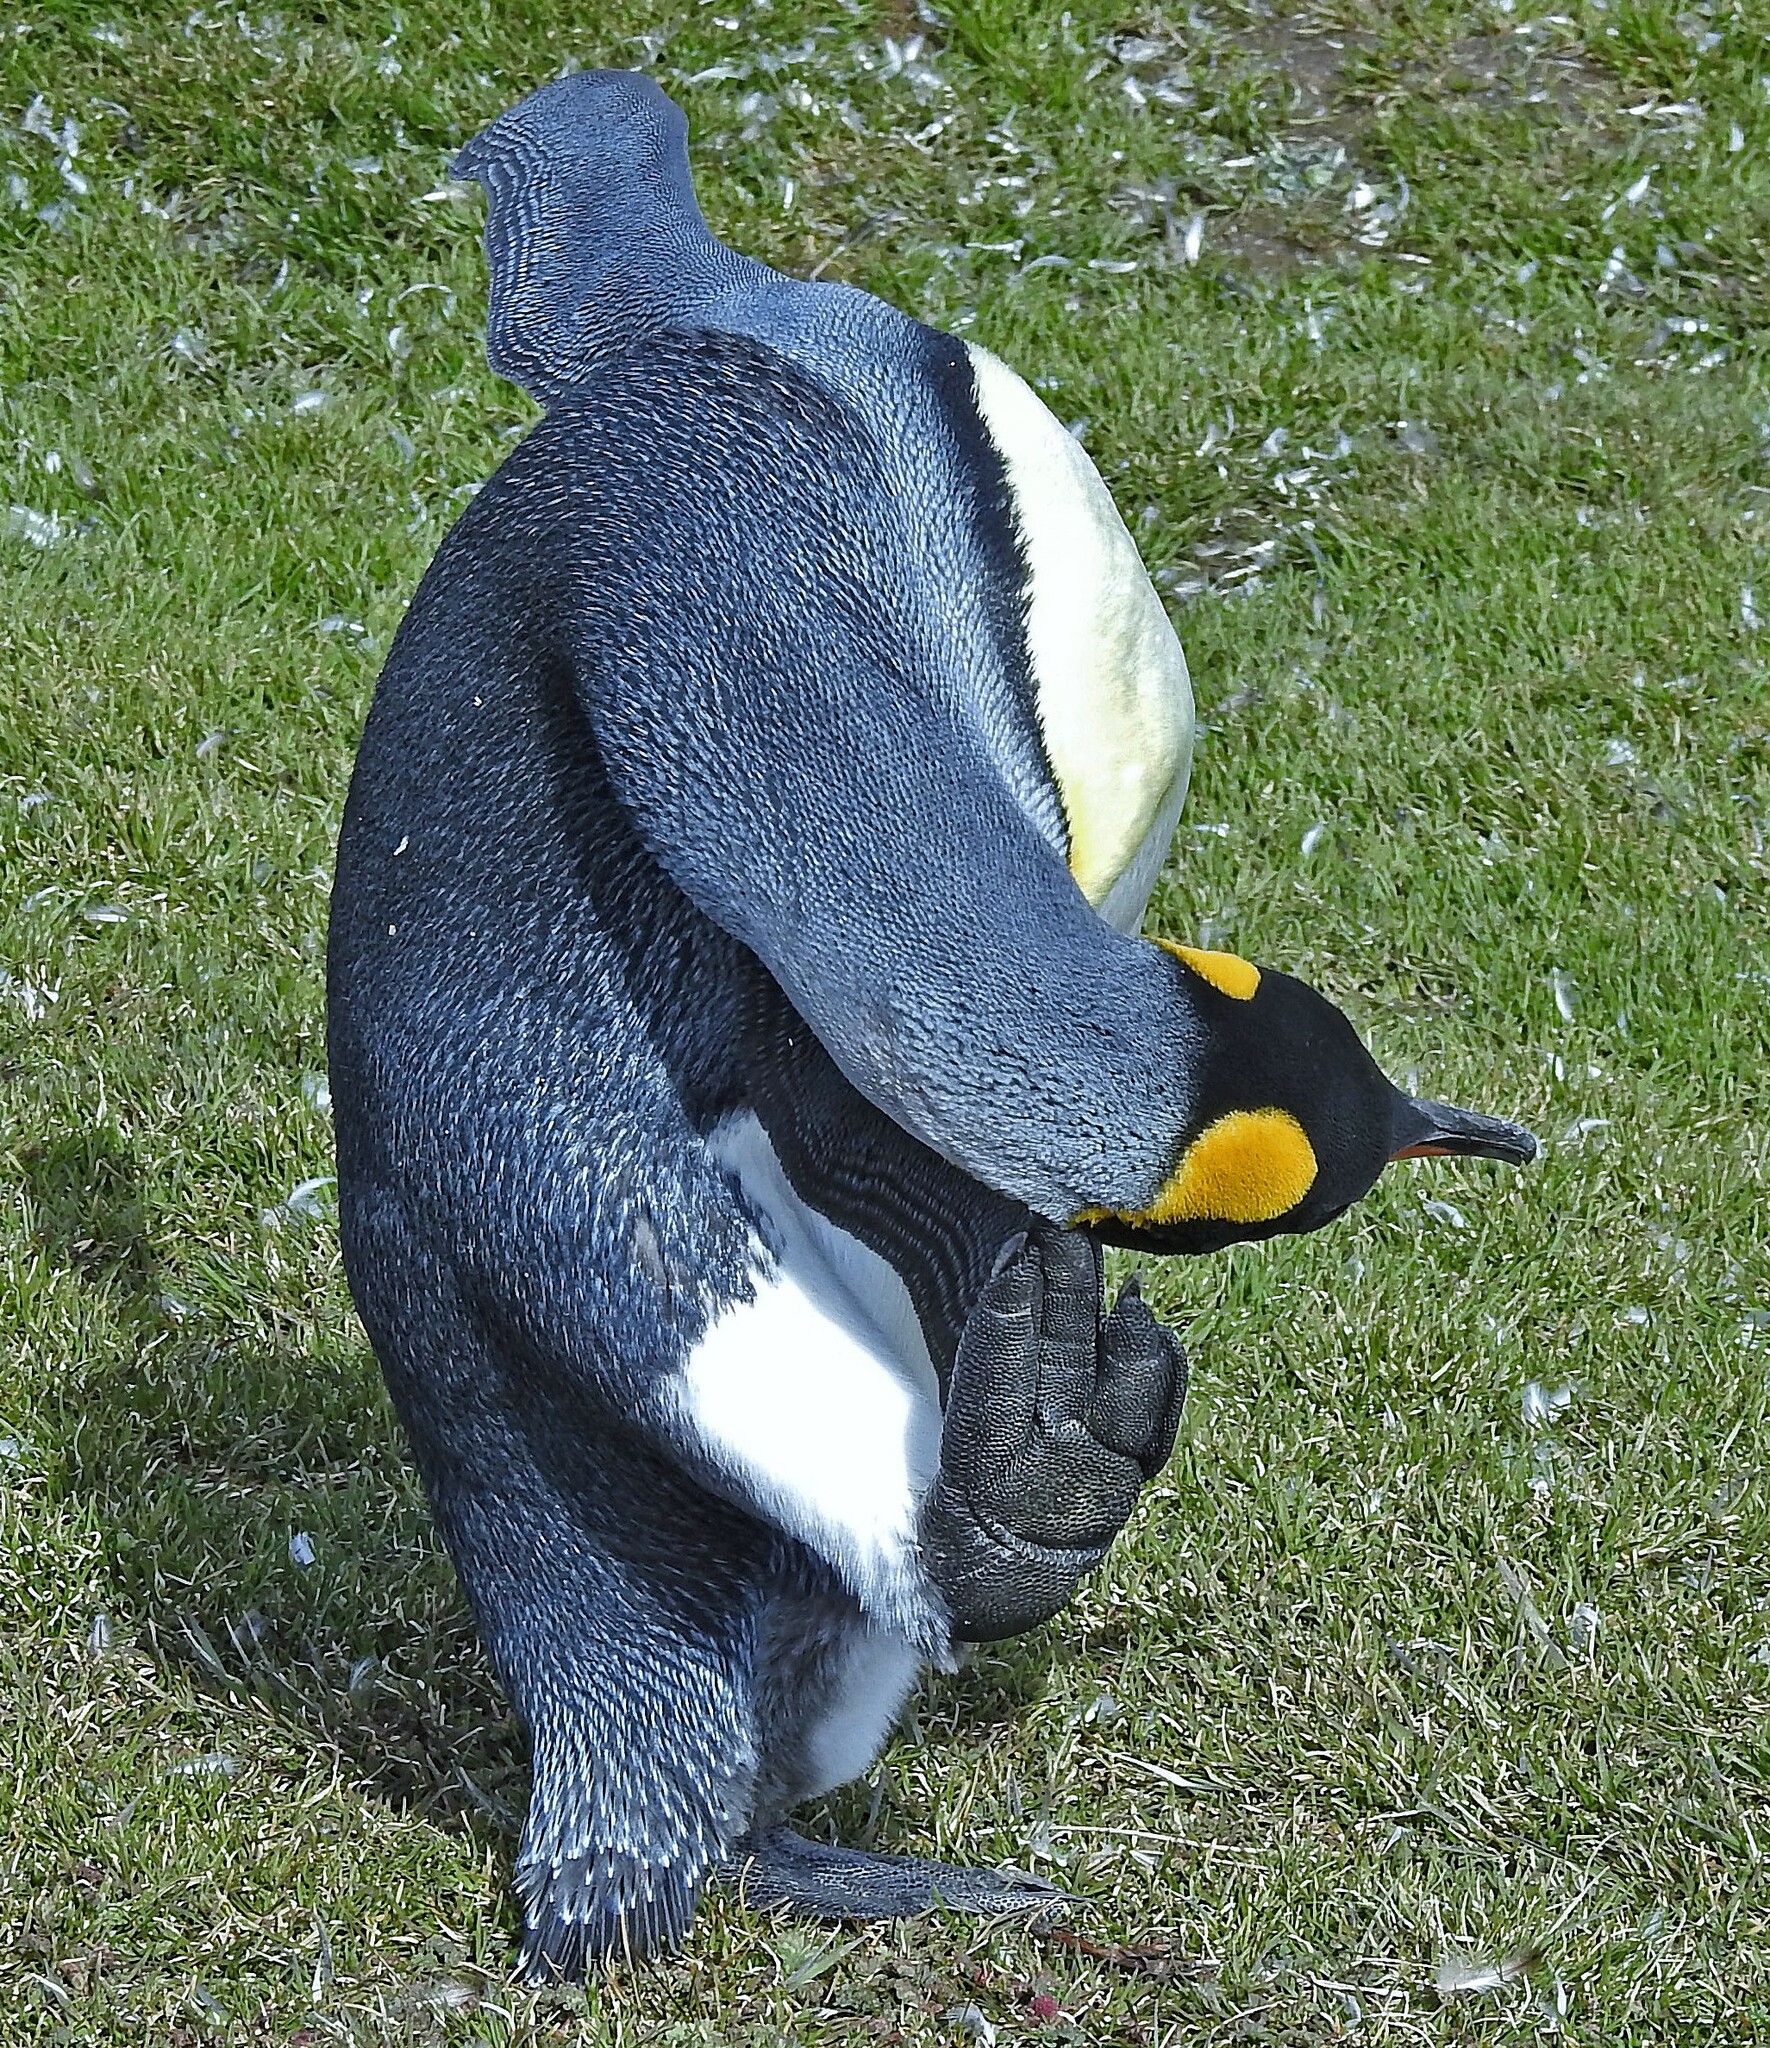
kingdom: Animalia
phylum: Chordata
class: Aves
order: Sphenisciformes
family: Spheniscidae
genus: Aptenodytes
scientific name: Aptenodytes patagonicus
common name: King penguin
